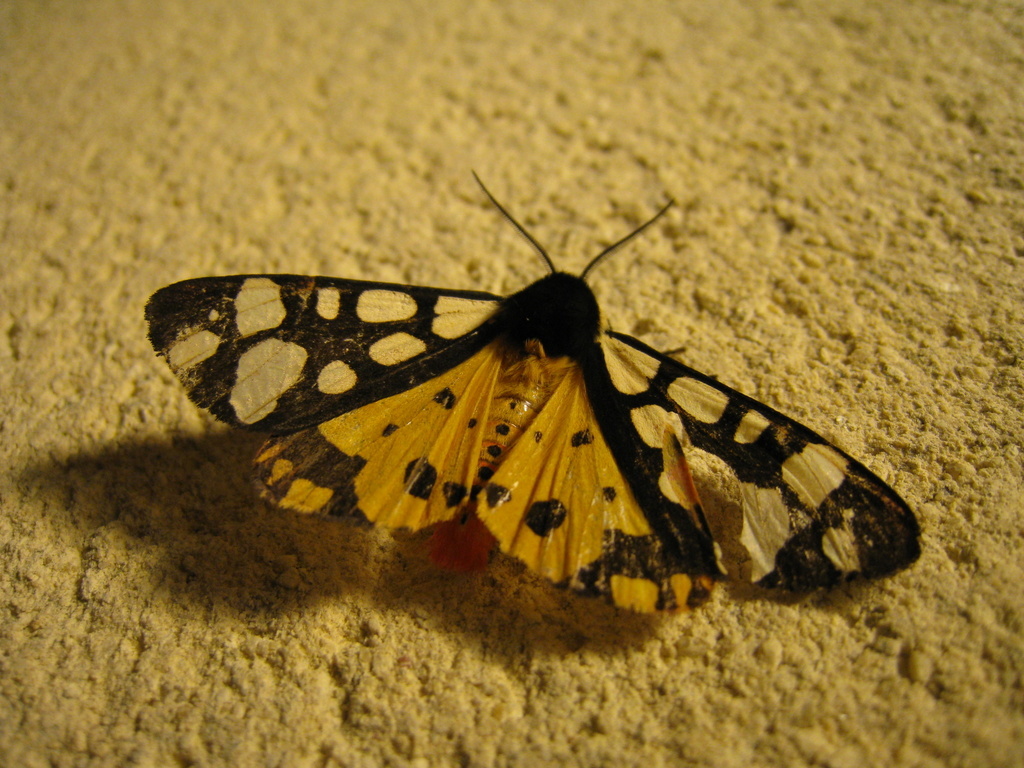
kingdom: Animalia
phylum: Arthropoda
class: Insecta
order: Lepidoptera
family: Erebidae
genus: Epicallia
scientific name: Epicallia villica
